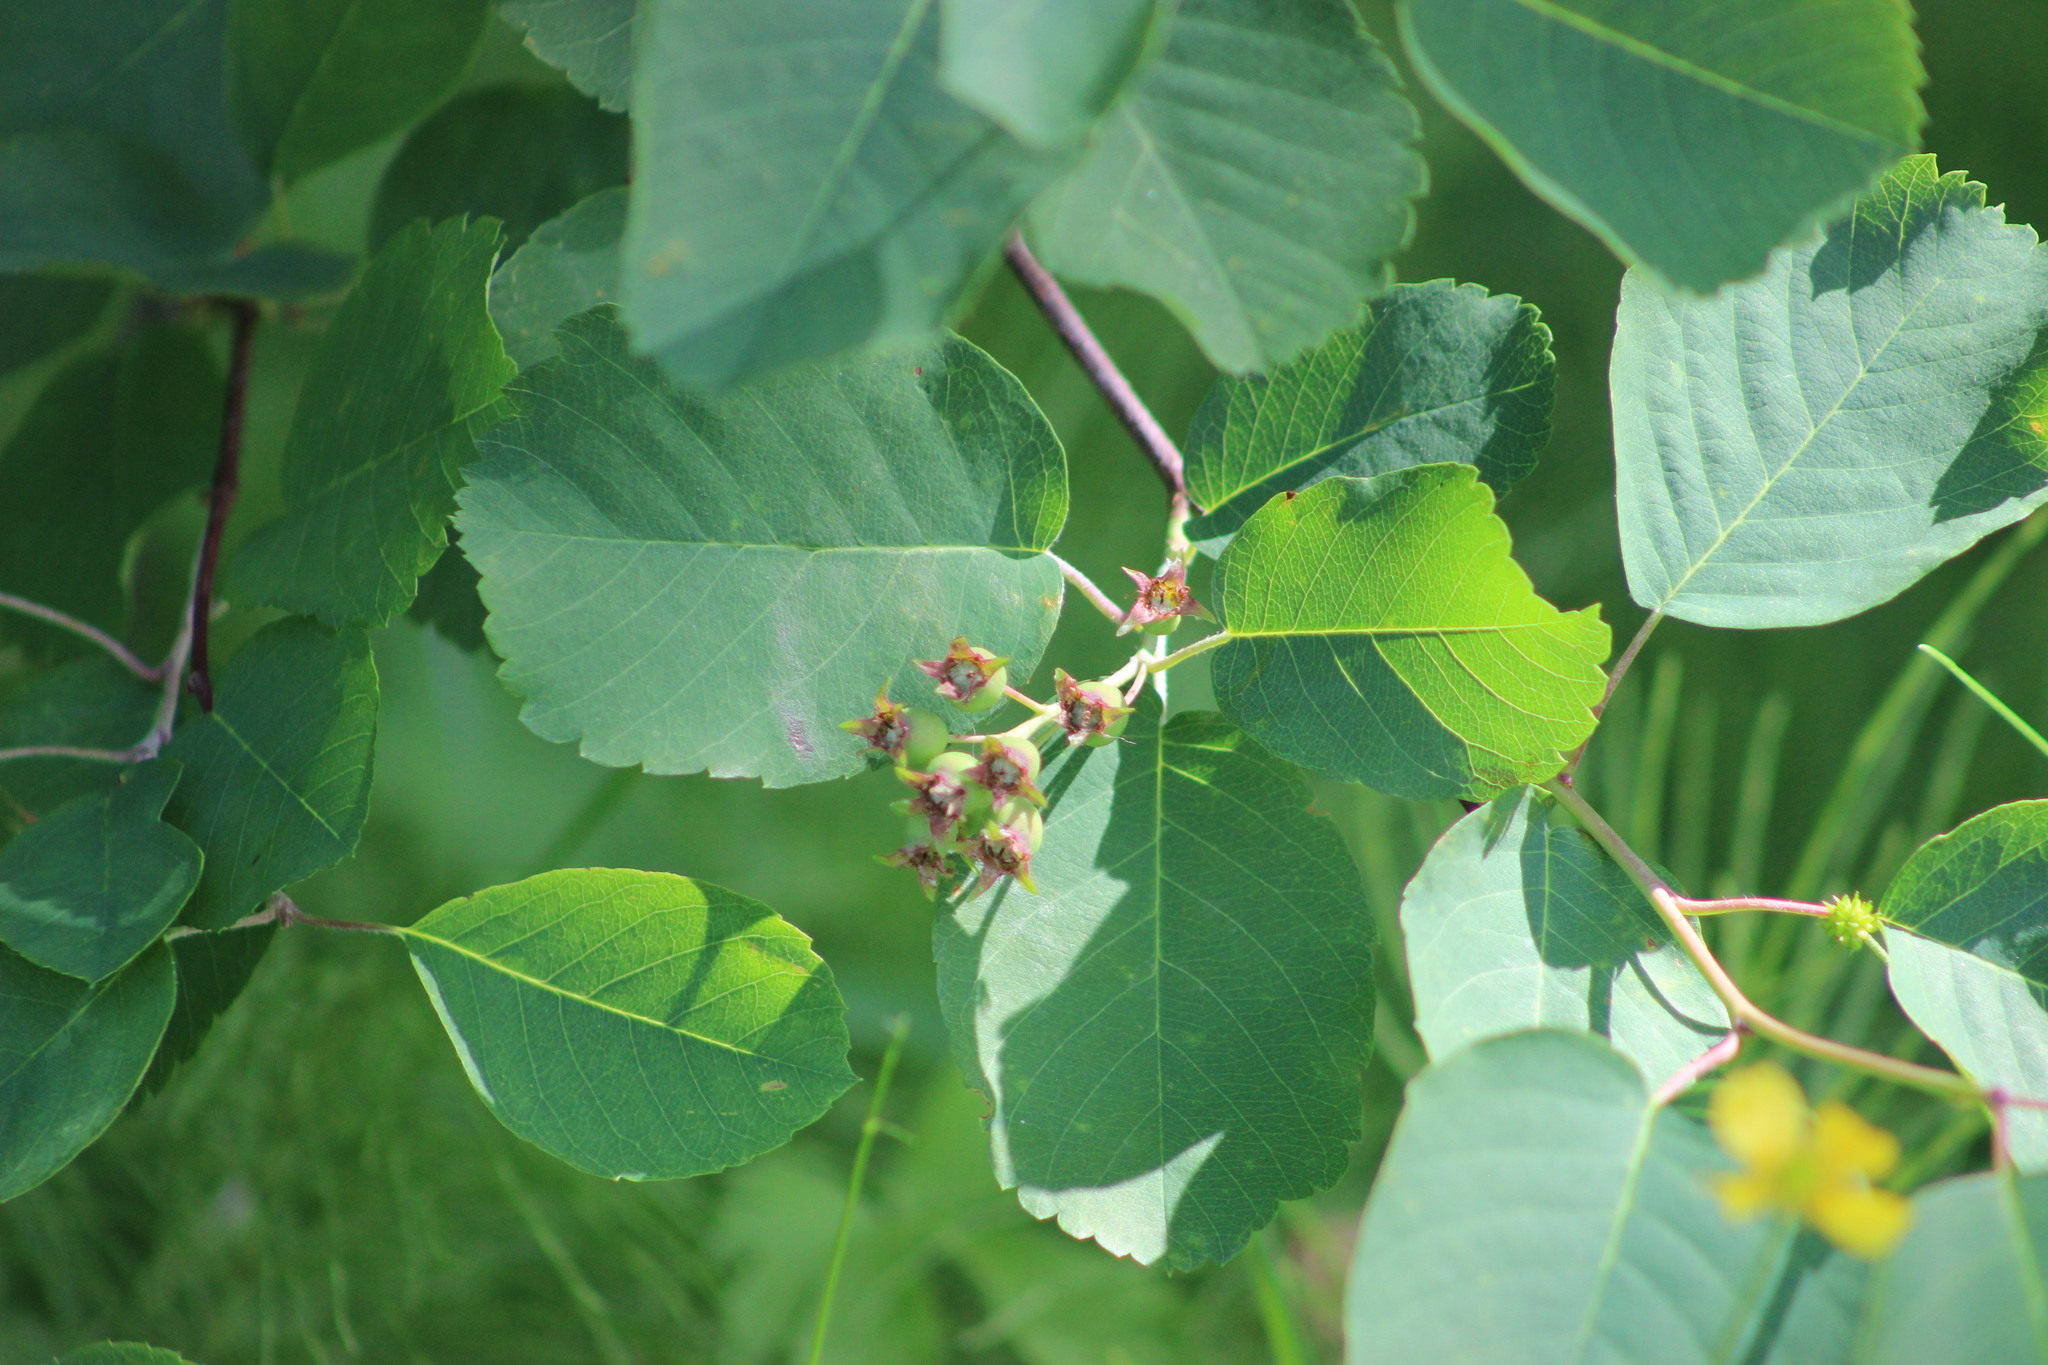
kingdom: Plantae
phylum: Tracheophyta
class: Magnoliopsida
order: Rosales
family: Rosaceae
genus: Amelanchier
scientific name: Amelanchier alnifolia
